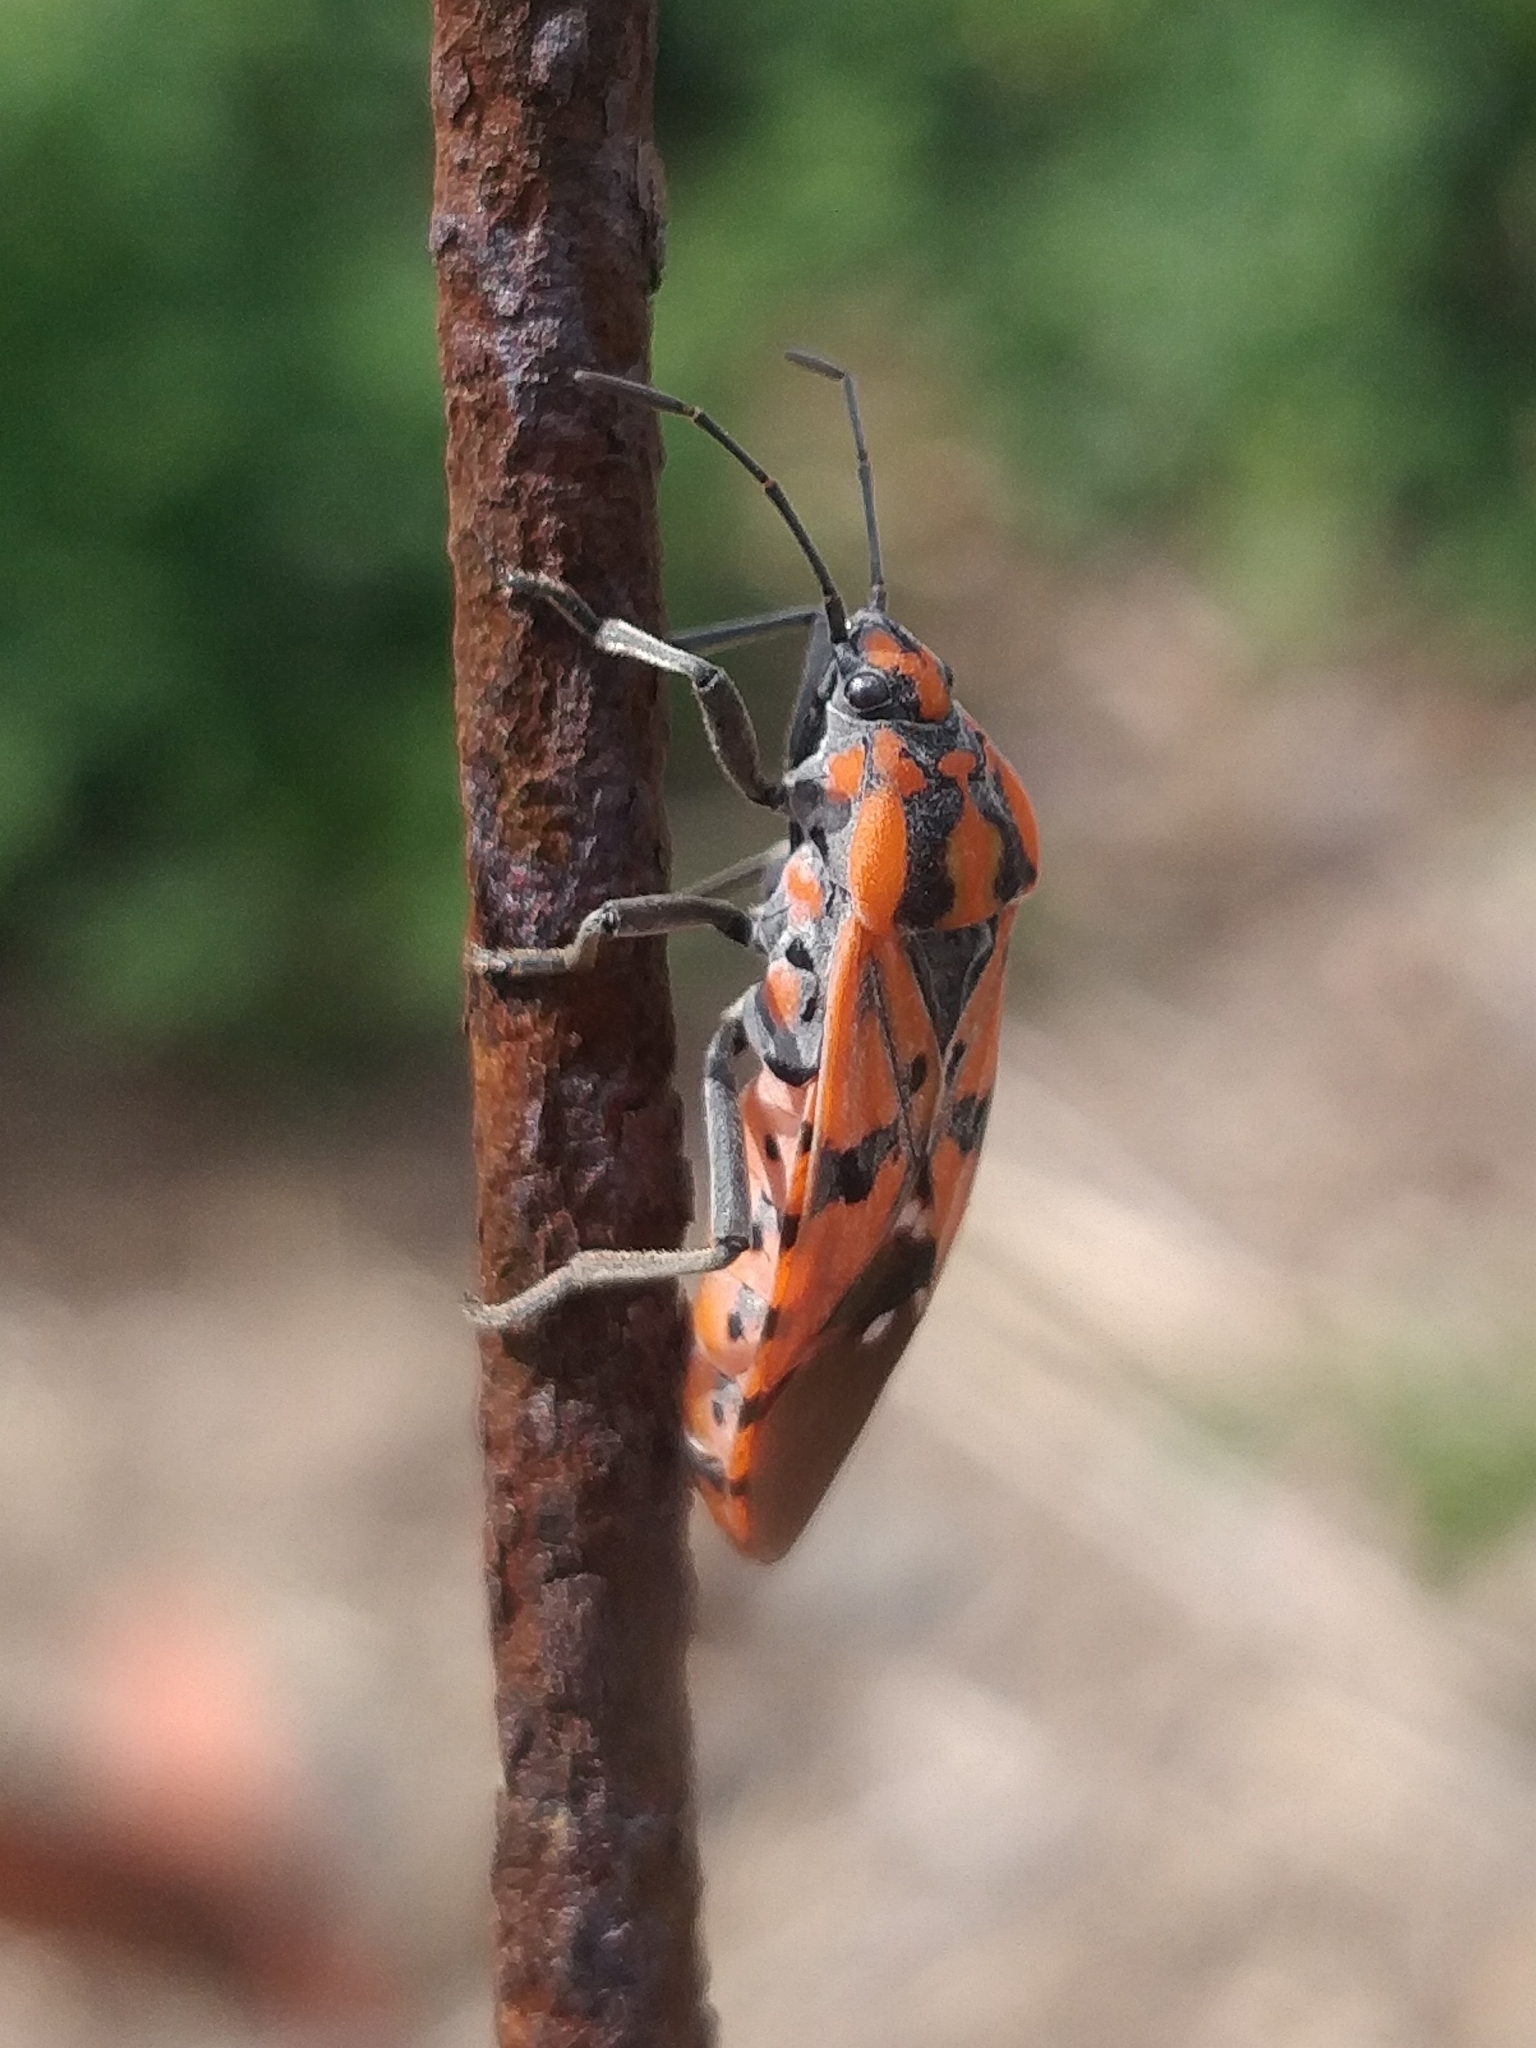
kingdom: Animalia
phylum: Arthropoda
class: Insecta
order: Hemiptera
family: Lygaeidae
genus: Spilostethus
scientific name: Spilostethus pandurus
